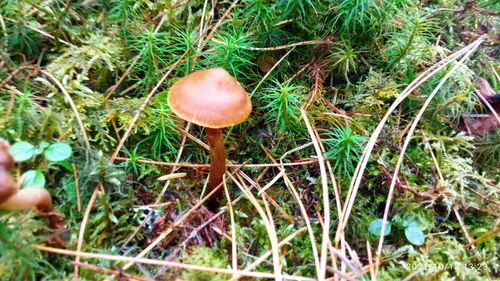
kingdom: Fungi
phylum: Basidiomycota
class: Agaricomycetes
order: Agaricales
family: Cortinariaceae
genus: Cortinarius
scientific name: Cortinarius
